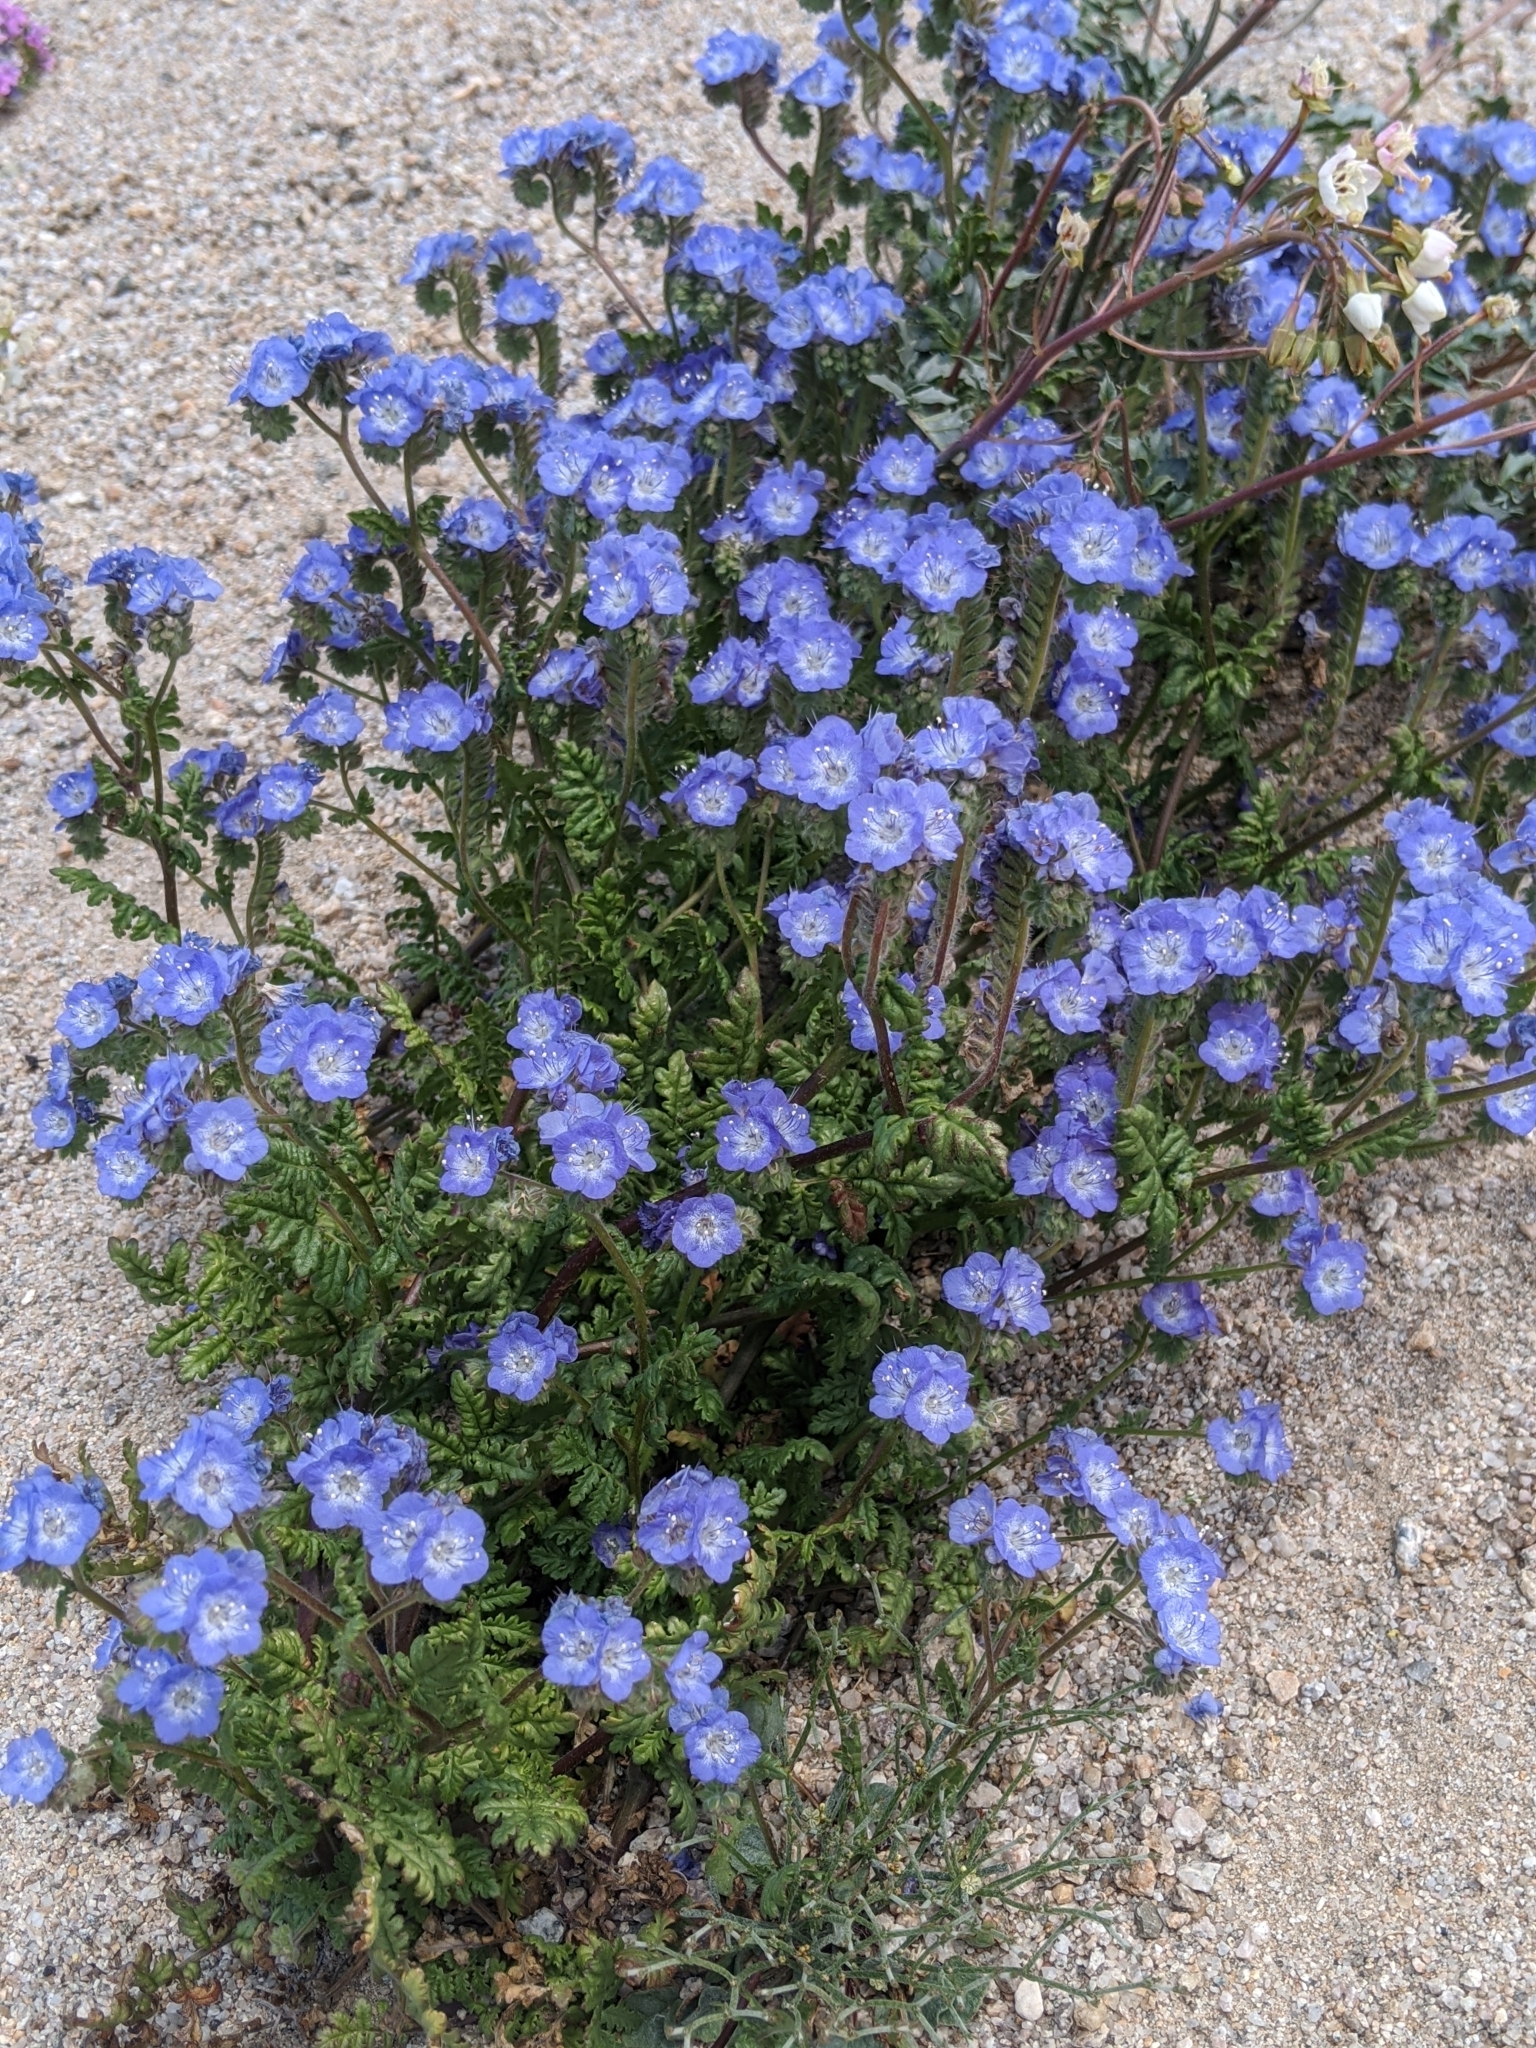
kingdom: Plantae
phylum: Tracheophyta
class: Magnoliopsida
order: Boraginales
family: Hydrophyllaceae
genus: Phacelia
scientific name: Phacelia distans
